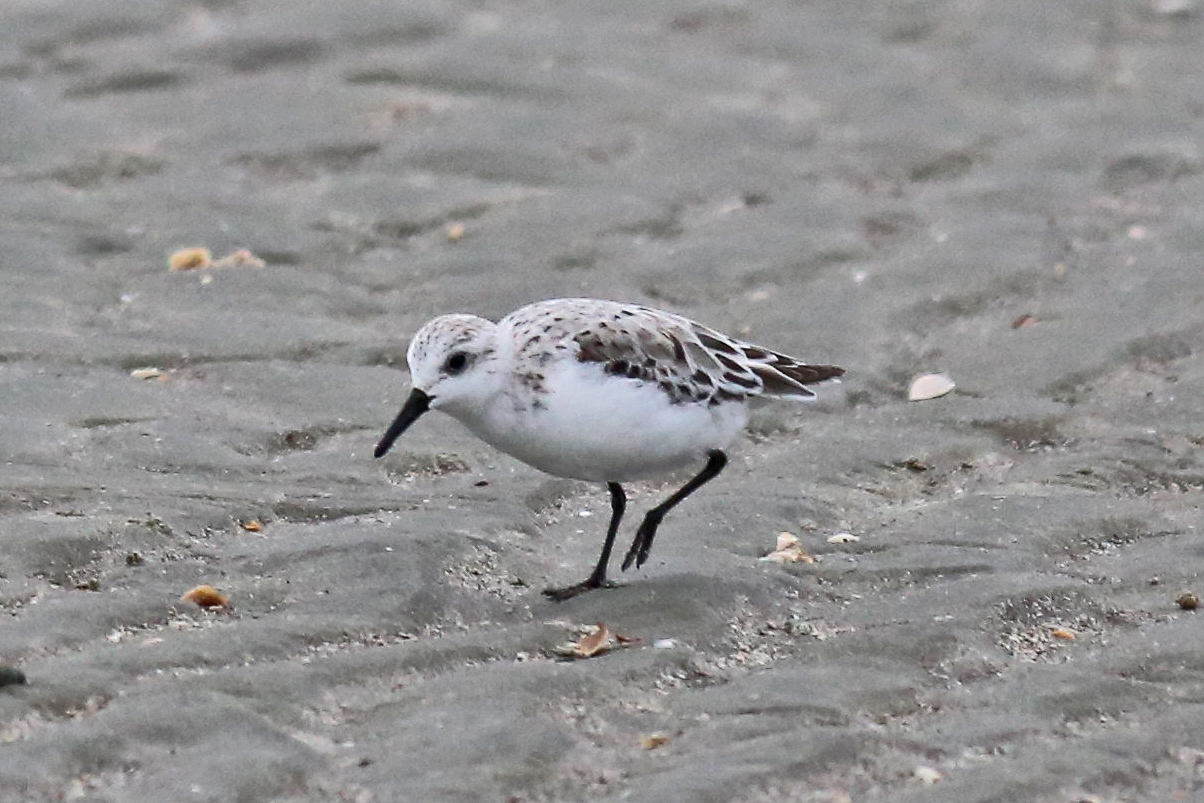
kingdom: Animalia
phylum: Chordata
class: Aves
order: Charadriiformes
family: Scolopacidae
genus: Calidris
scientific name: Calidris alba
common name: Sanderling
